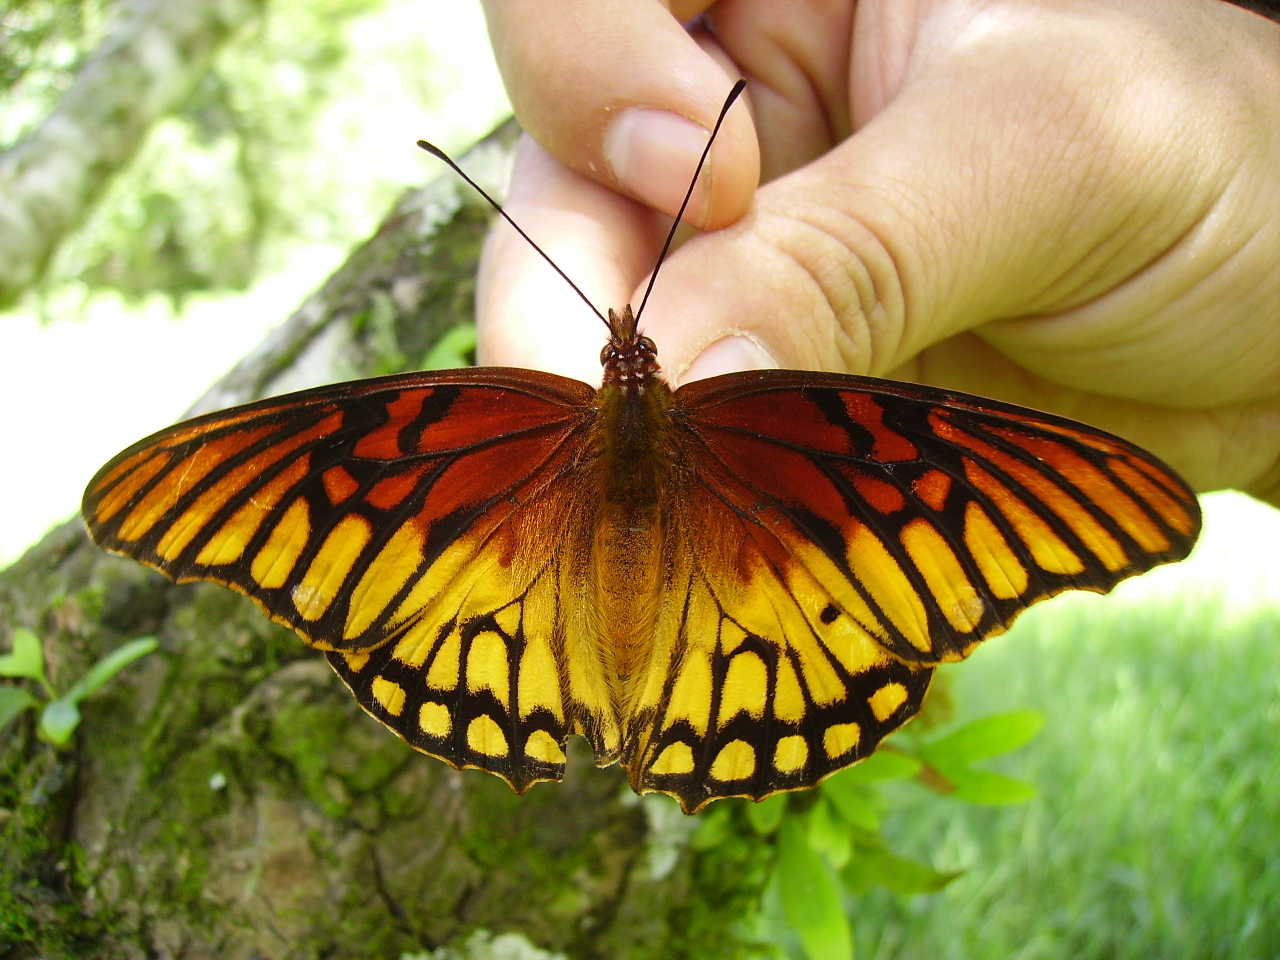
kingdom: Animalia
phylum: Arthropoda
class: Insecta
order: Lepidoptera
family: Nymphalidae
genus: Dione
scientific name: Dione moneta
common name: Mexican silverspot
